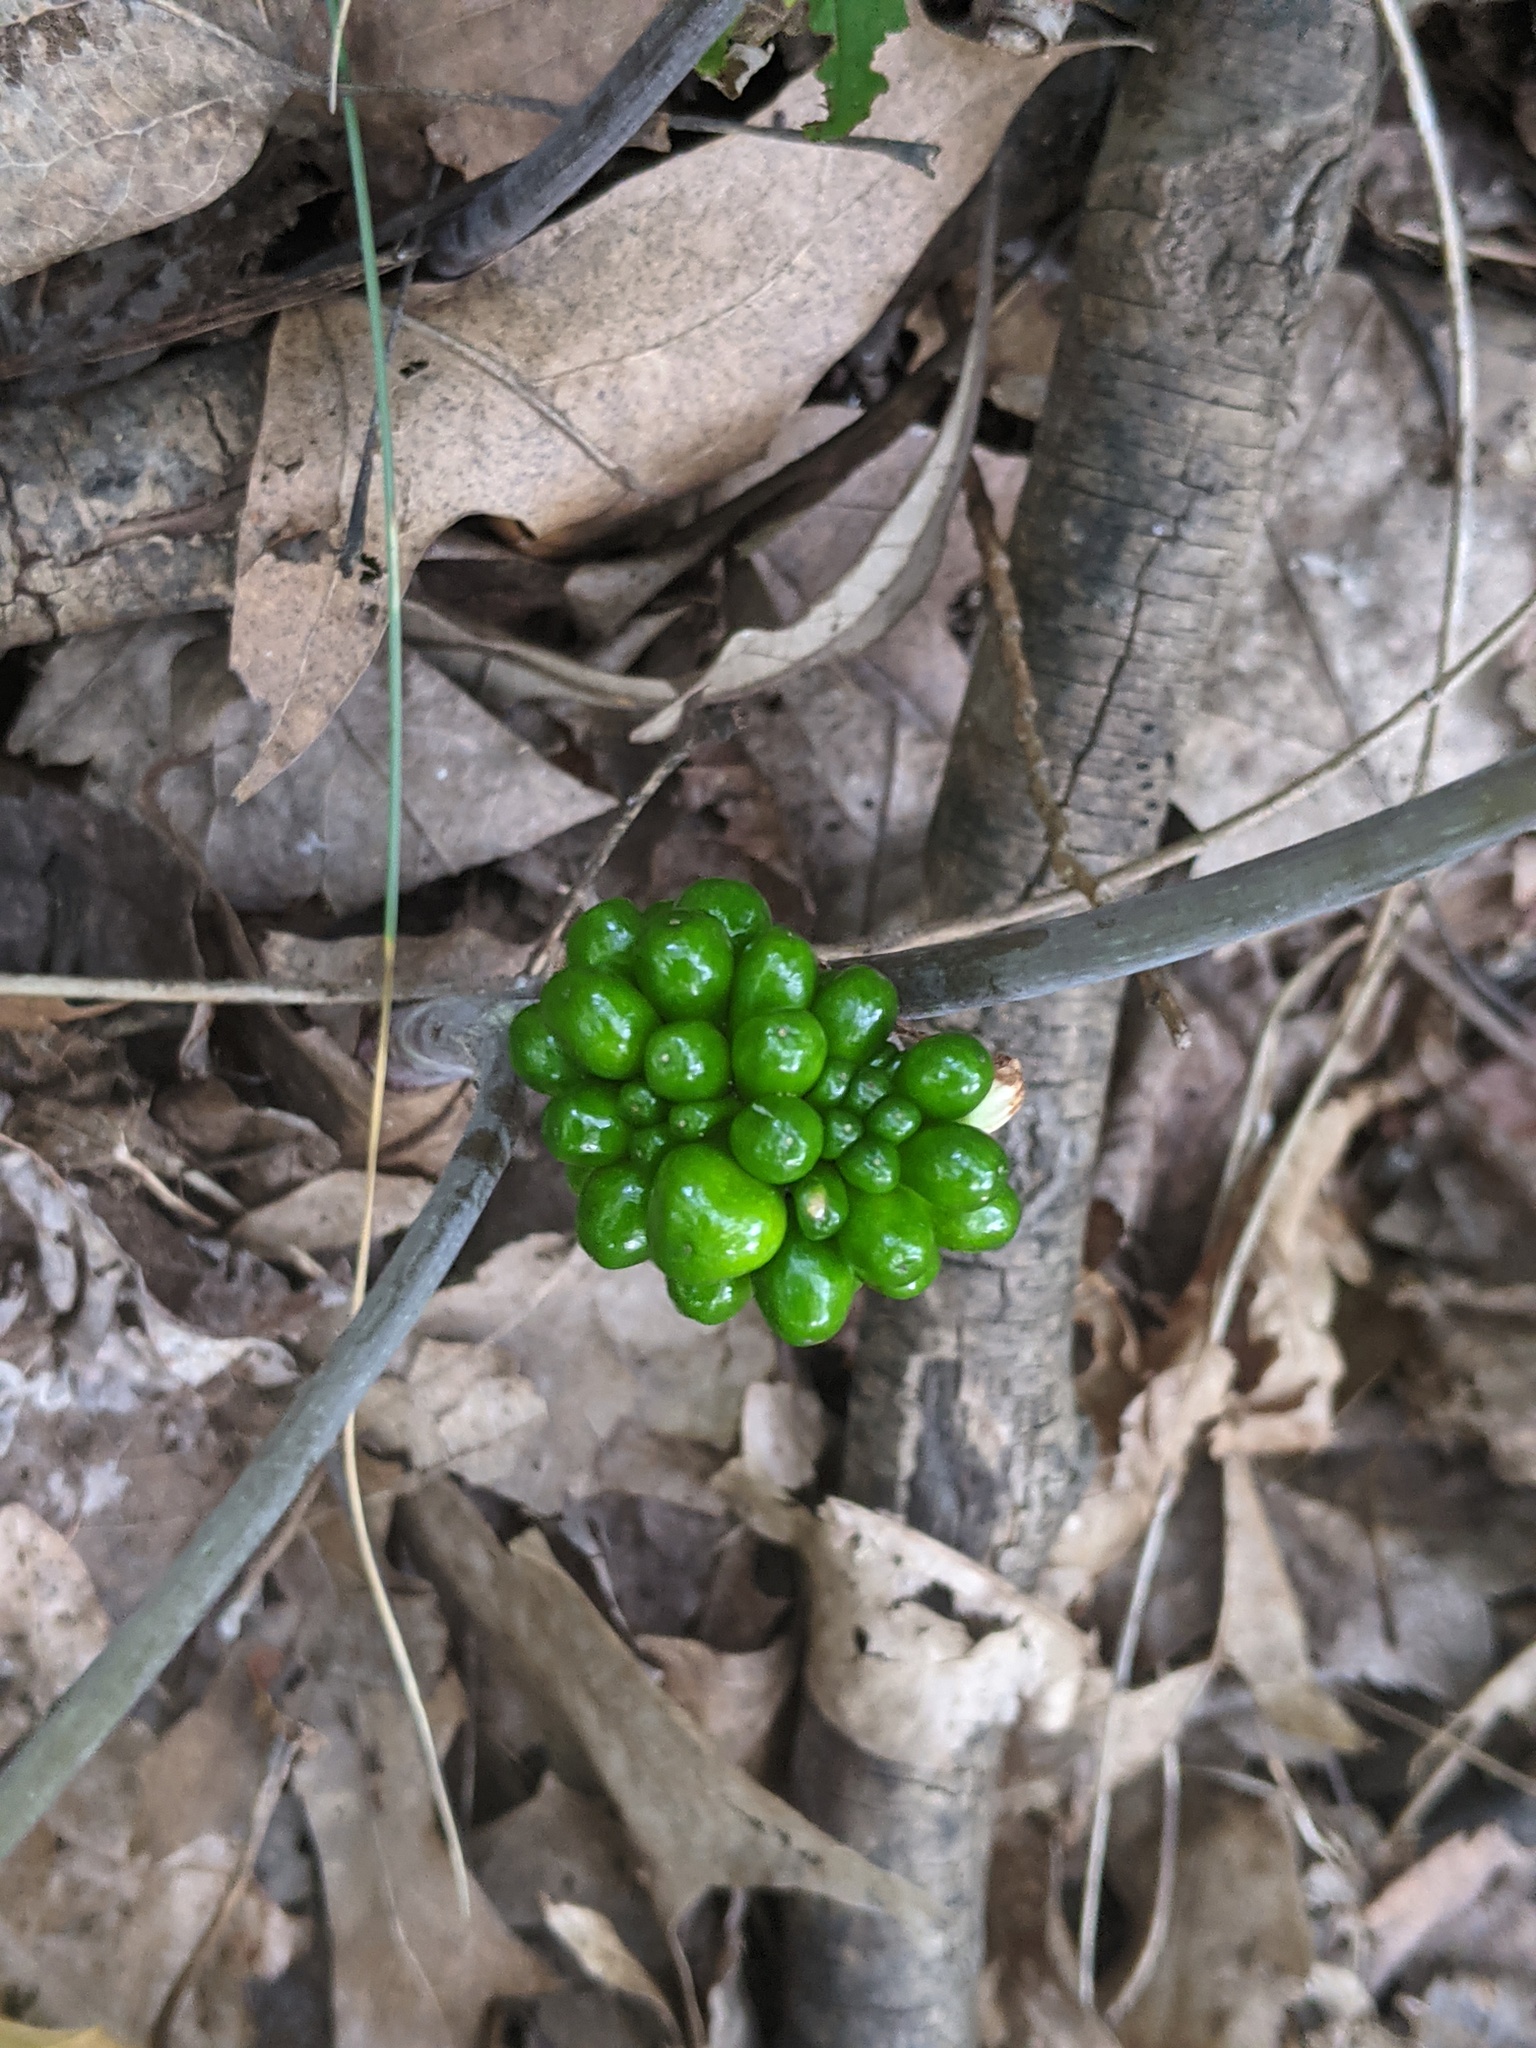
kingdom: Plantae
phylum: Tracheophyta
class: Liliopsida
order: Alismatales
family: Araceae
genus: Arisaema
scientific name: Arisaema triphyllum
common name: Jack-in-the-pulpit
